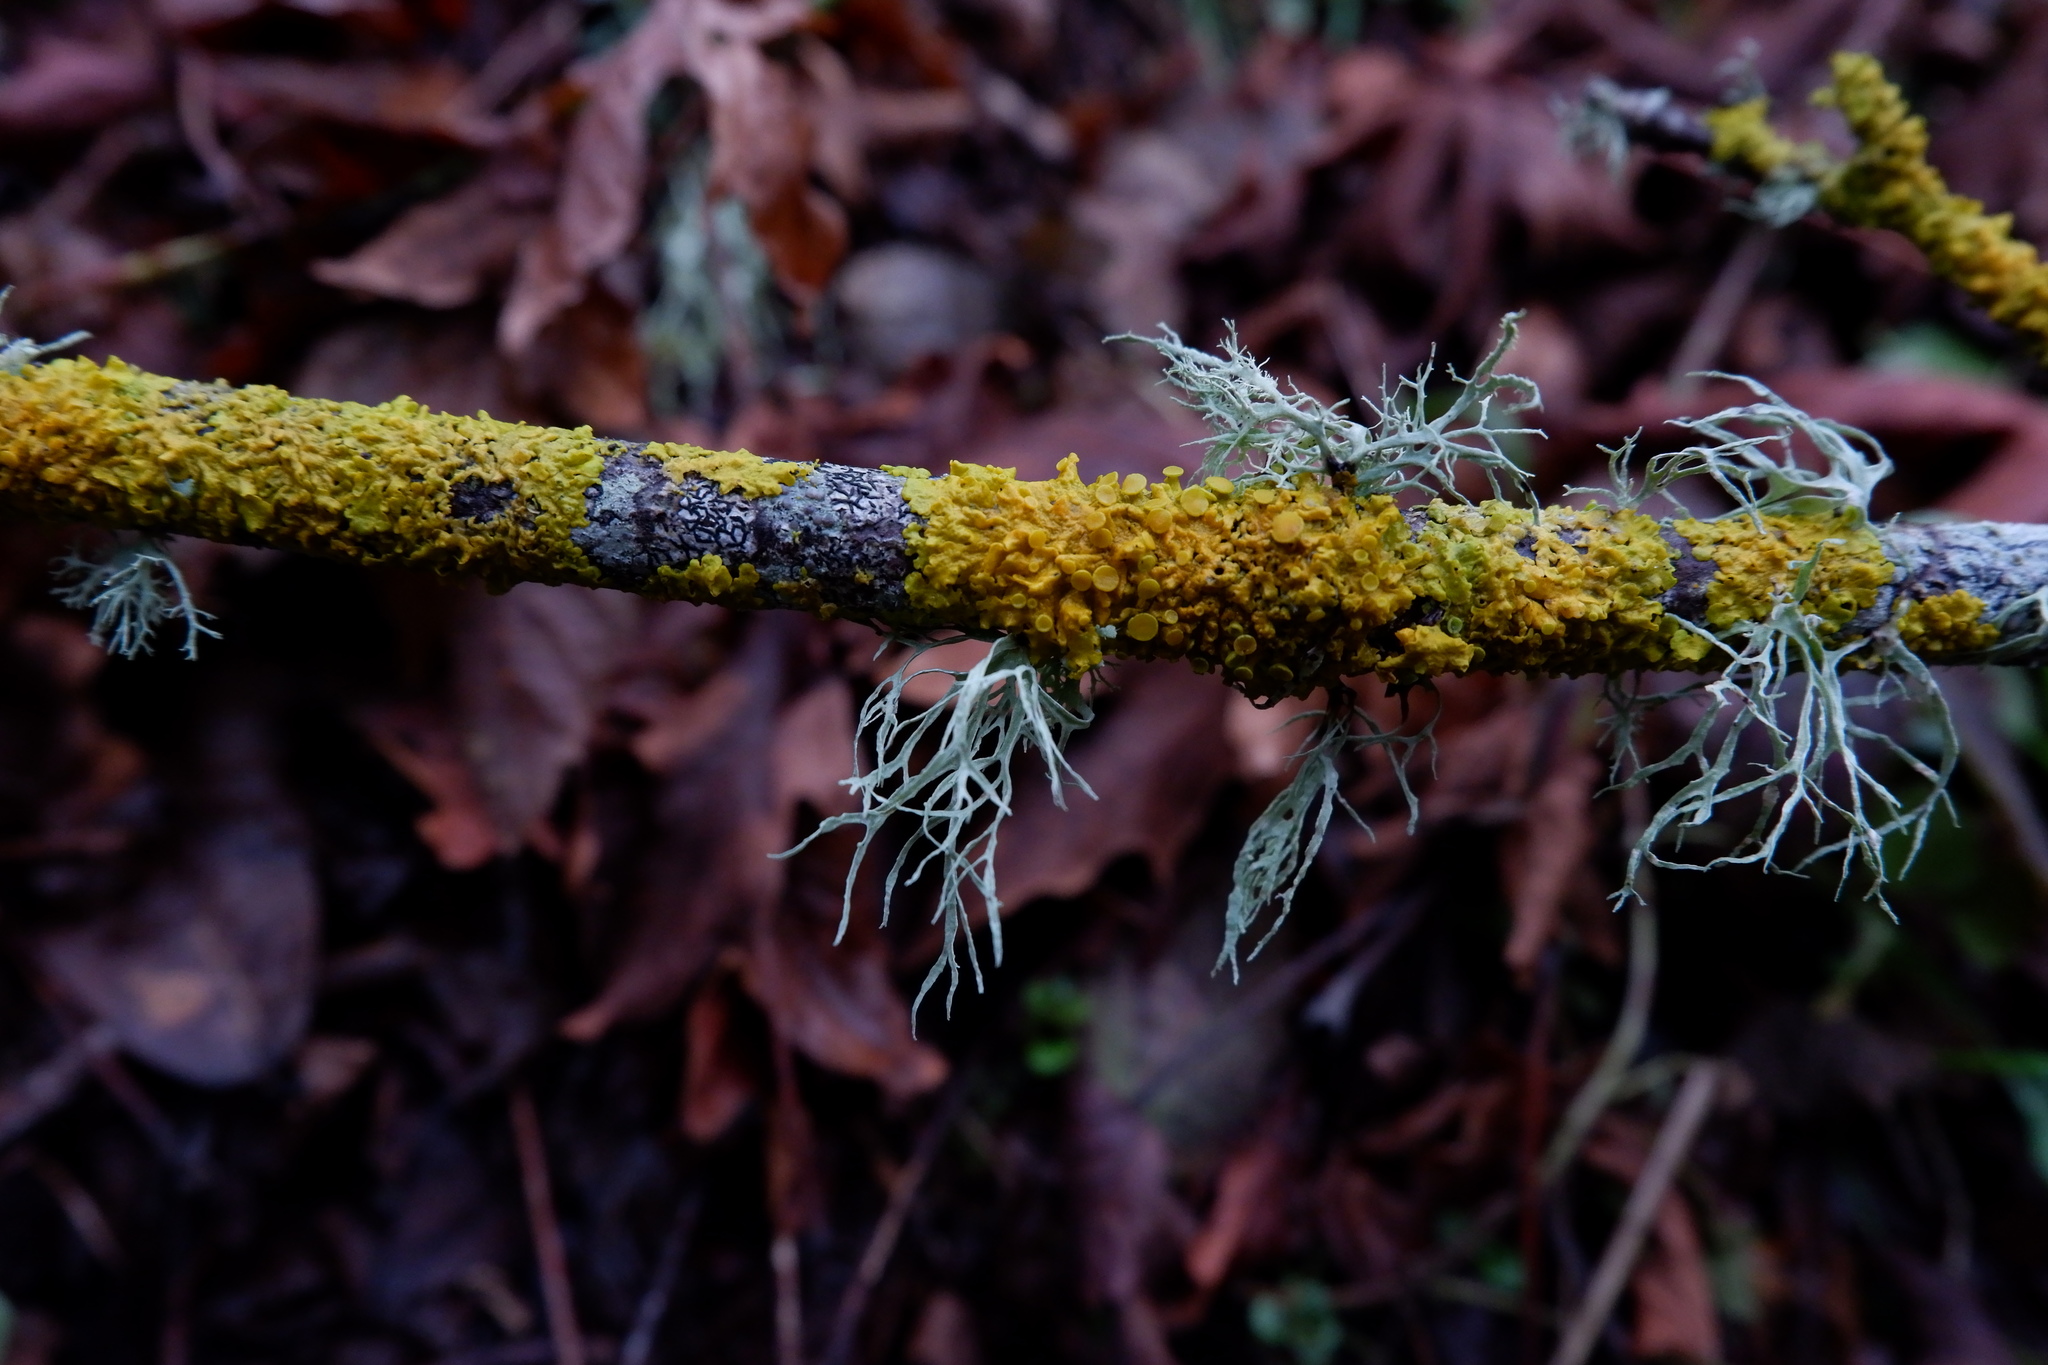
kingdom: Fungi
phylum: Ascomycota
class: Lecanoromycetes
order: Teloschistales
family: Teloschistaceae
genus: Xanthoria
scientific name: Xanthoria parietina
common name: Common orange lichen
